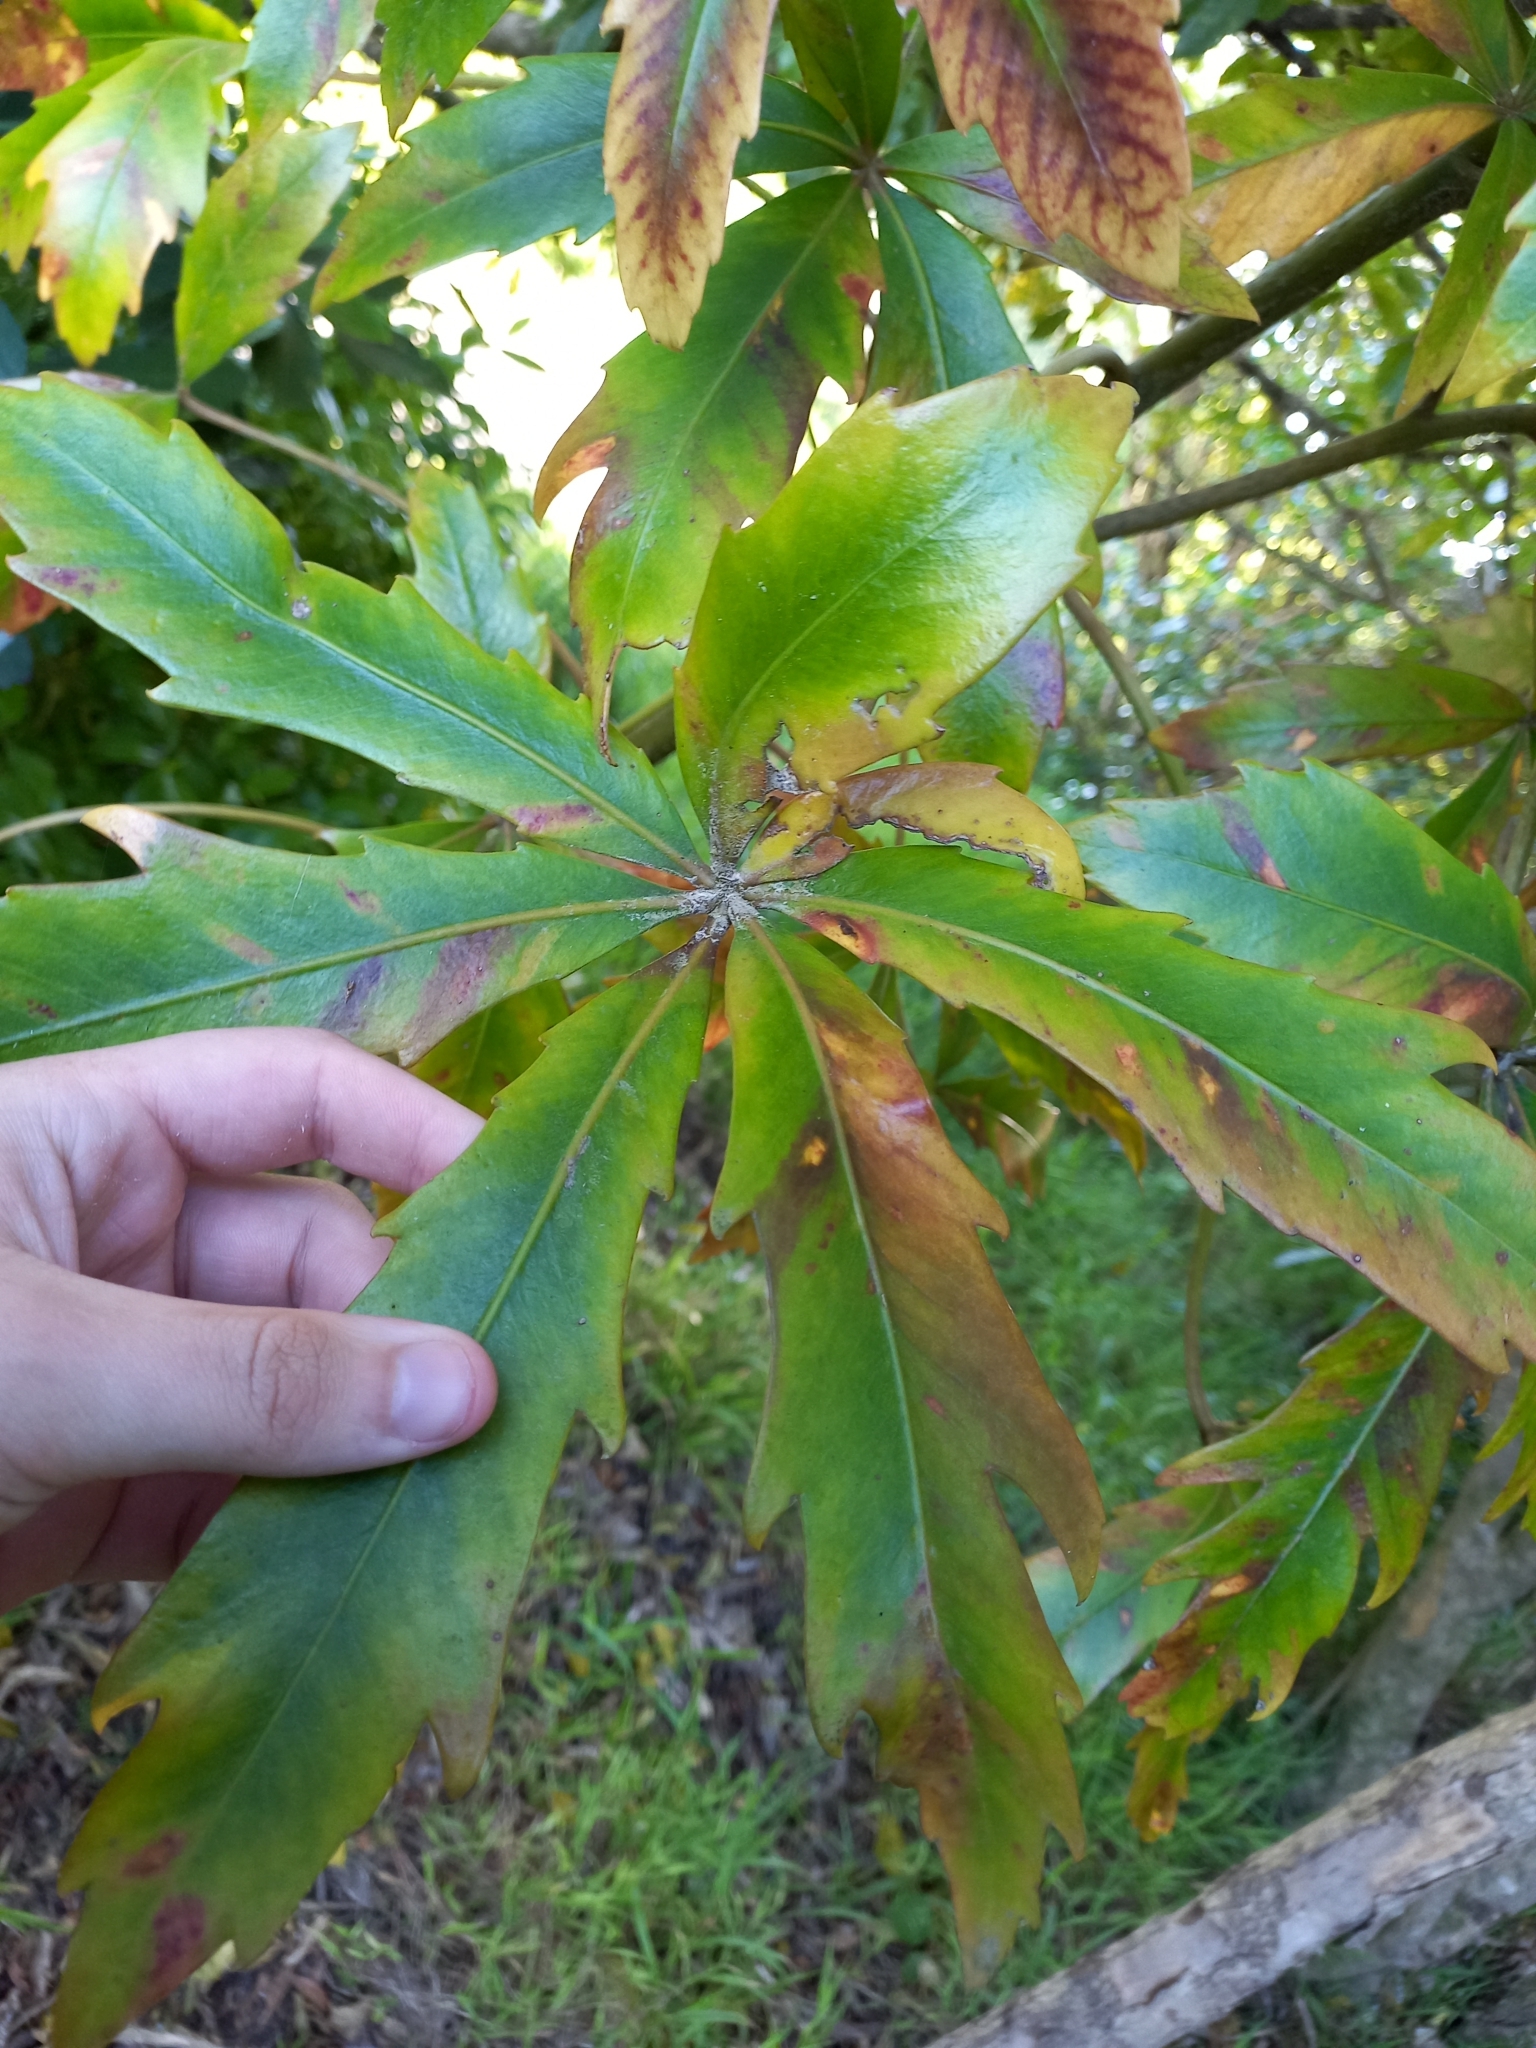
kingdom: Plantae
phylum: Tracheophyta
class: Magnoliopsida
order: Apiales
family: Araliaceae
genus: Pseudopanax
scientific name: Pseudopanax
